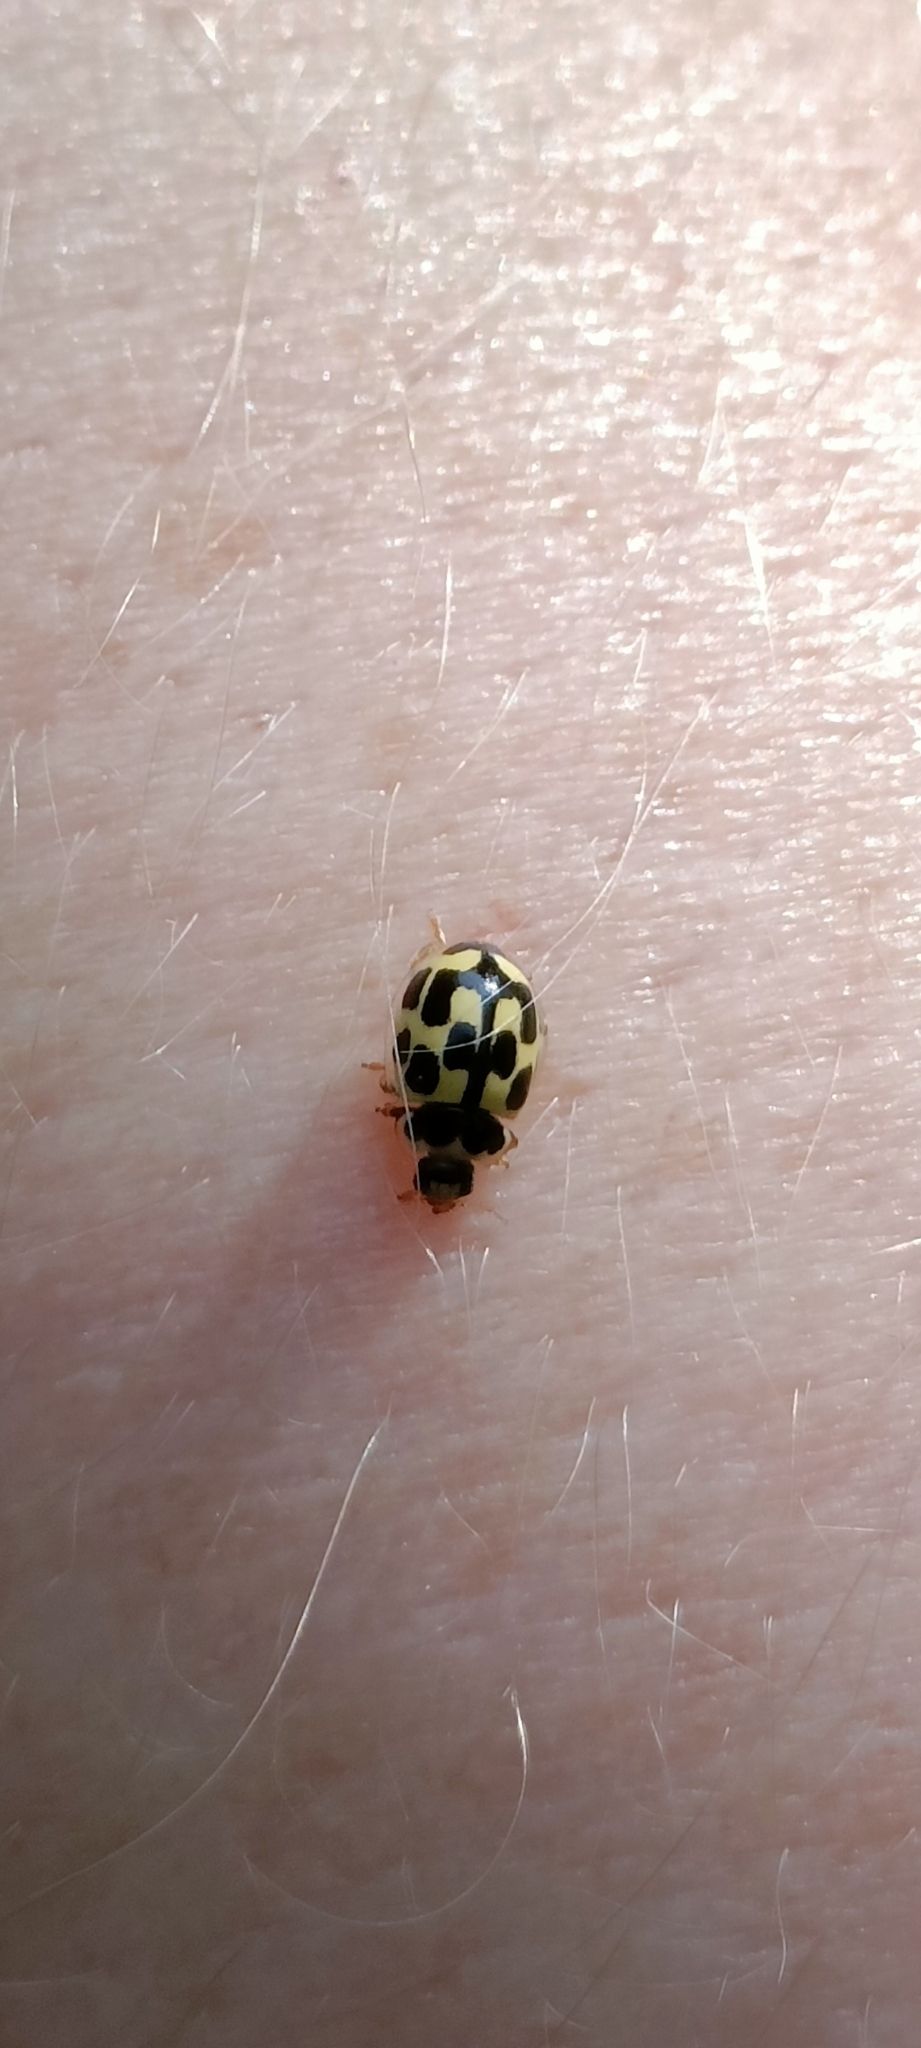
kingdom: Animalia
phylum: Arthropoda
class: Insecta
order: Coleoptera
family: Coccinellidae
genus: Propylaea
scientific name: Propylaea quatuordecimpunctata
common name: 14-spotted ladybird beetle
